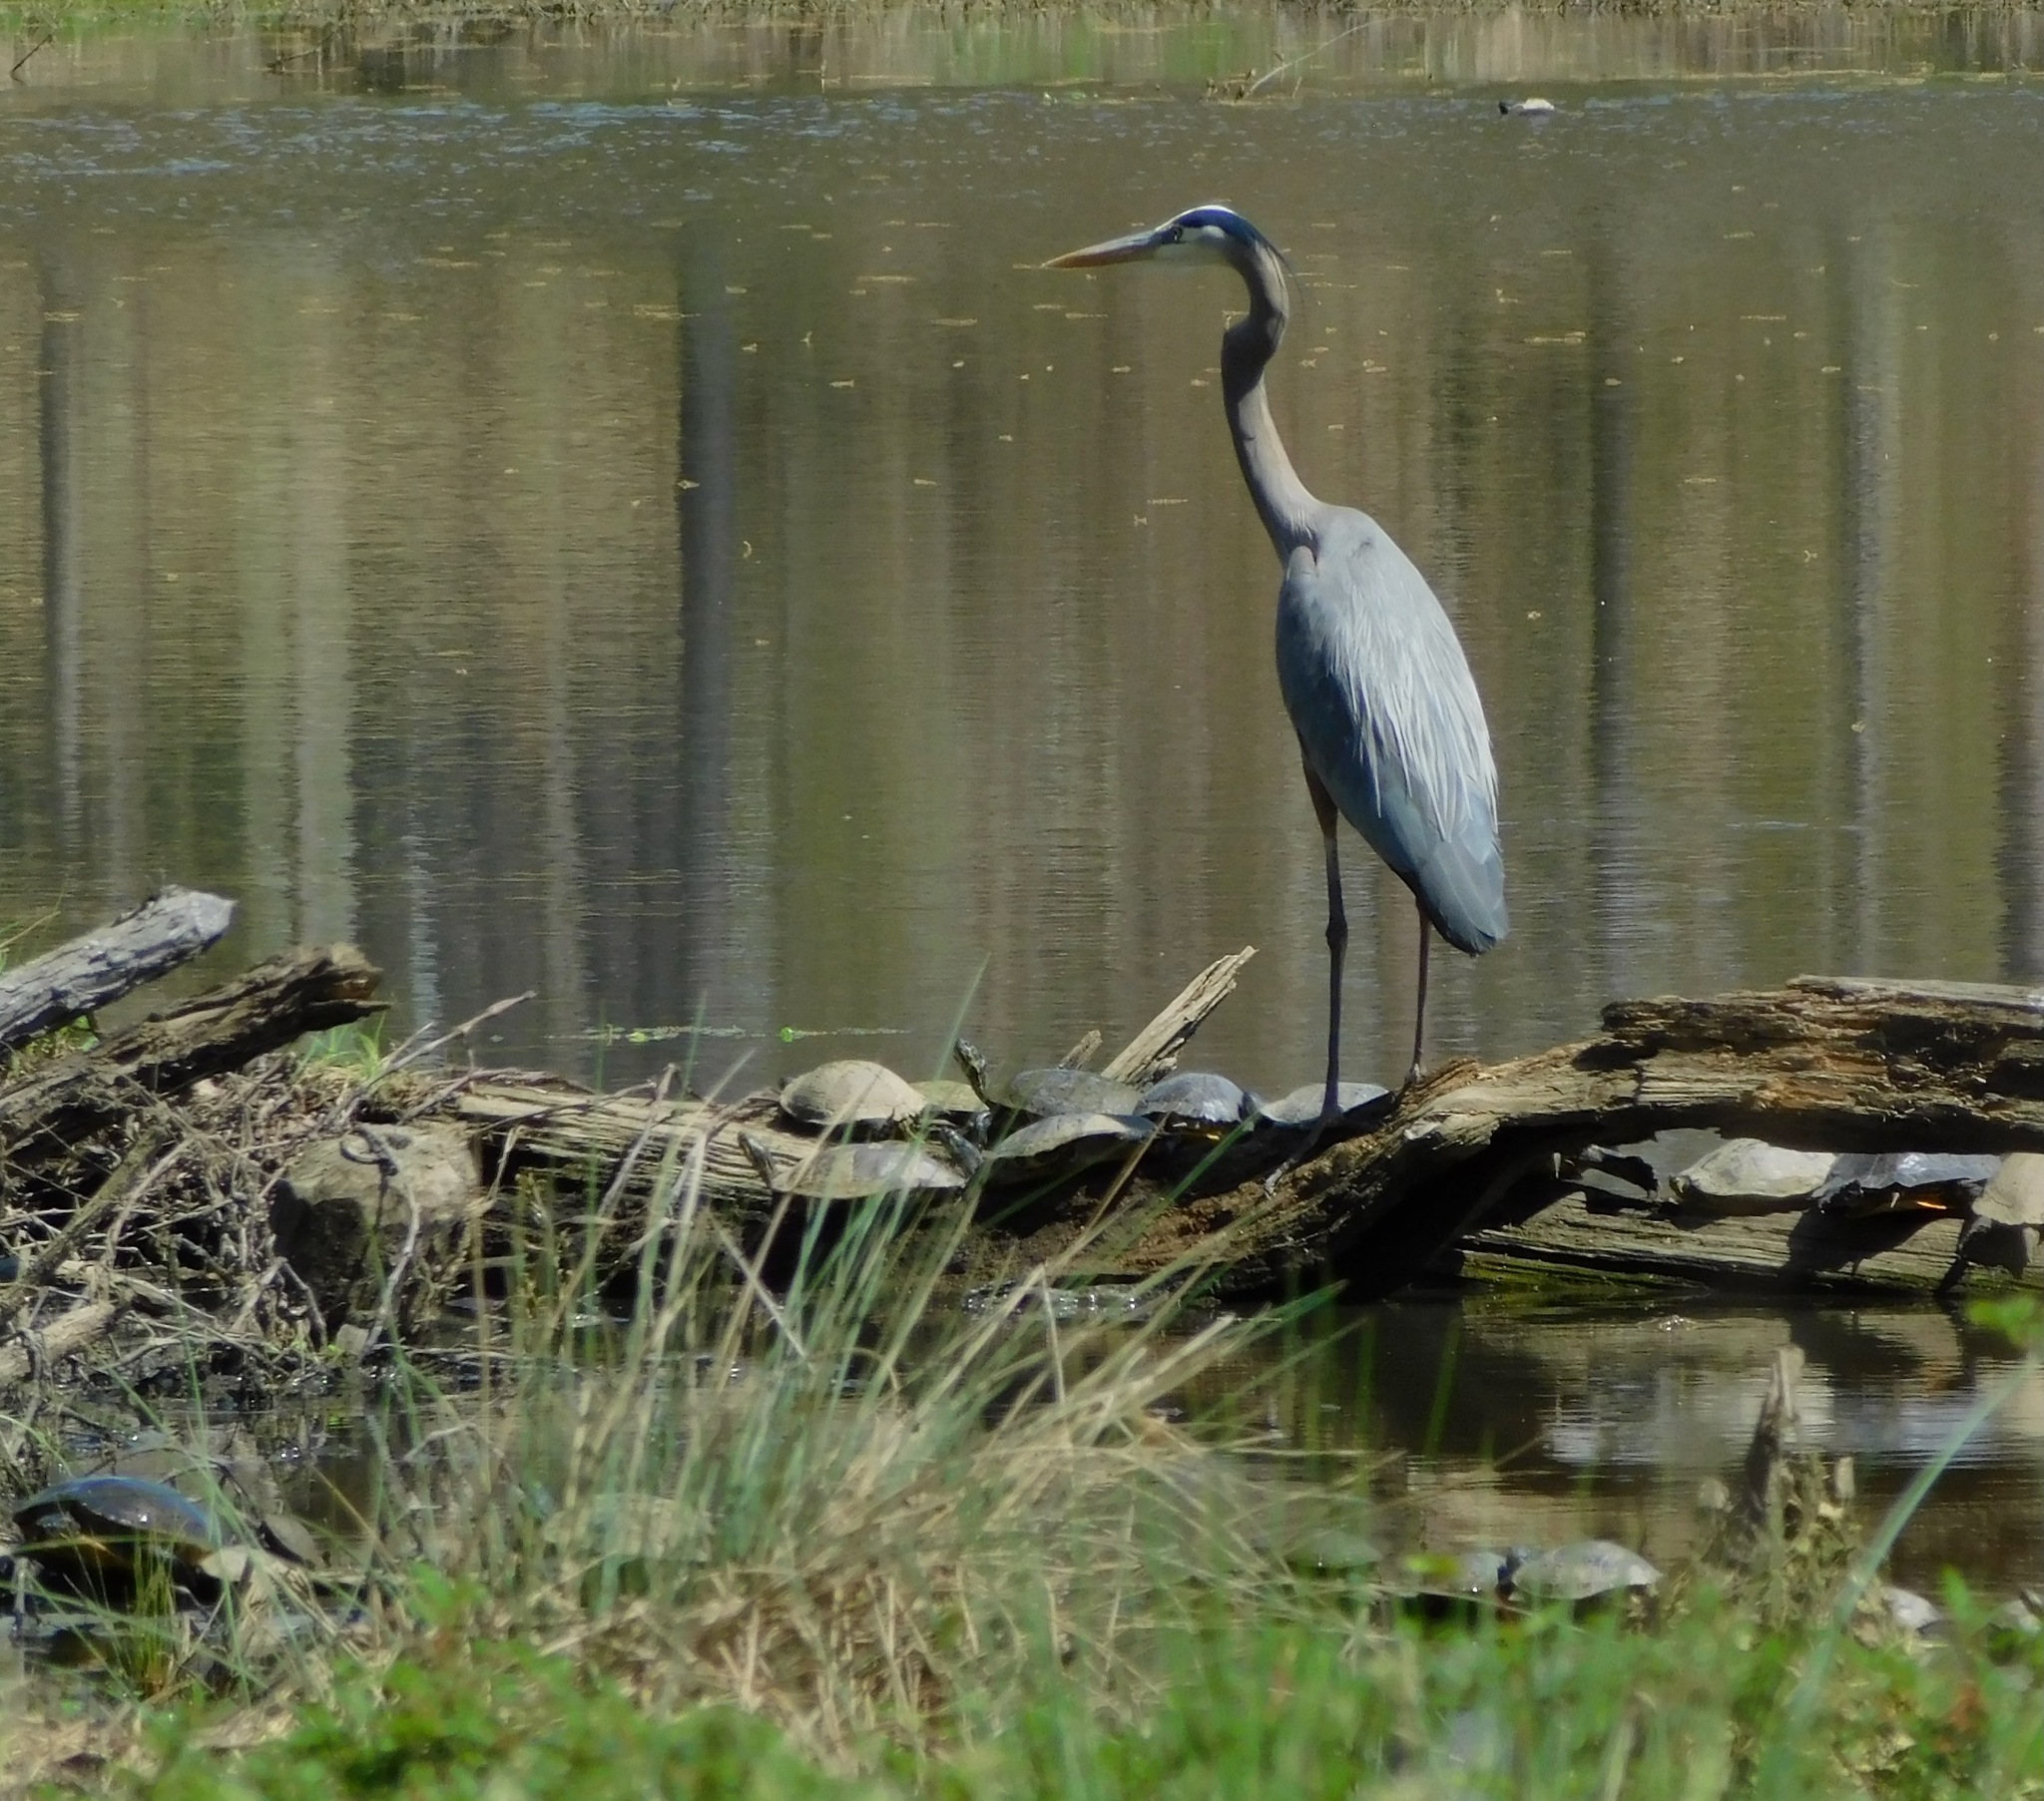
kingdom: Animalia
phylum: Chordata
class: Aves
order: Pelecaniformes
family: Ardeidae
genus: Ardea
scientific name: Ardea herodias
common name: Great blue heron
